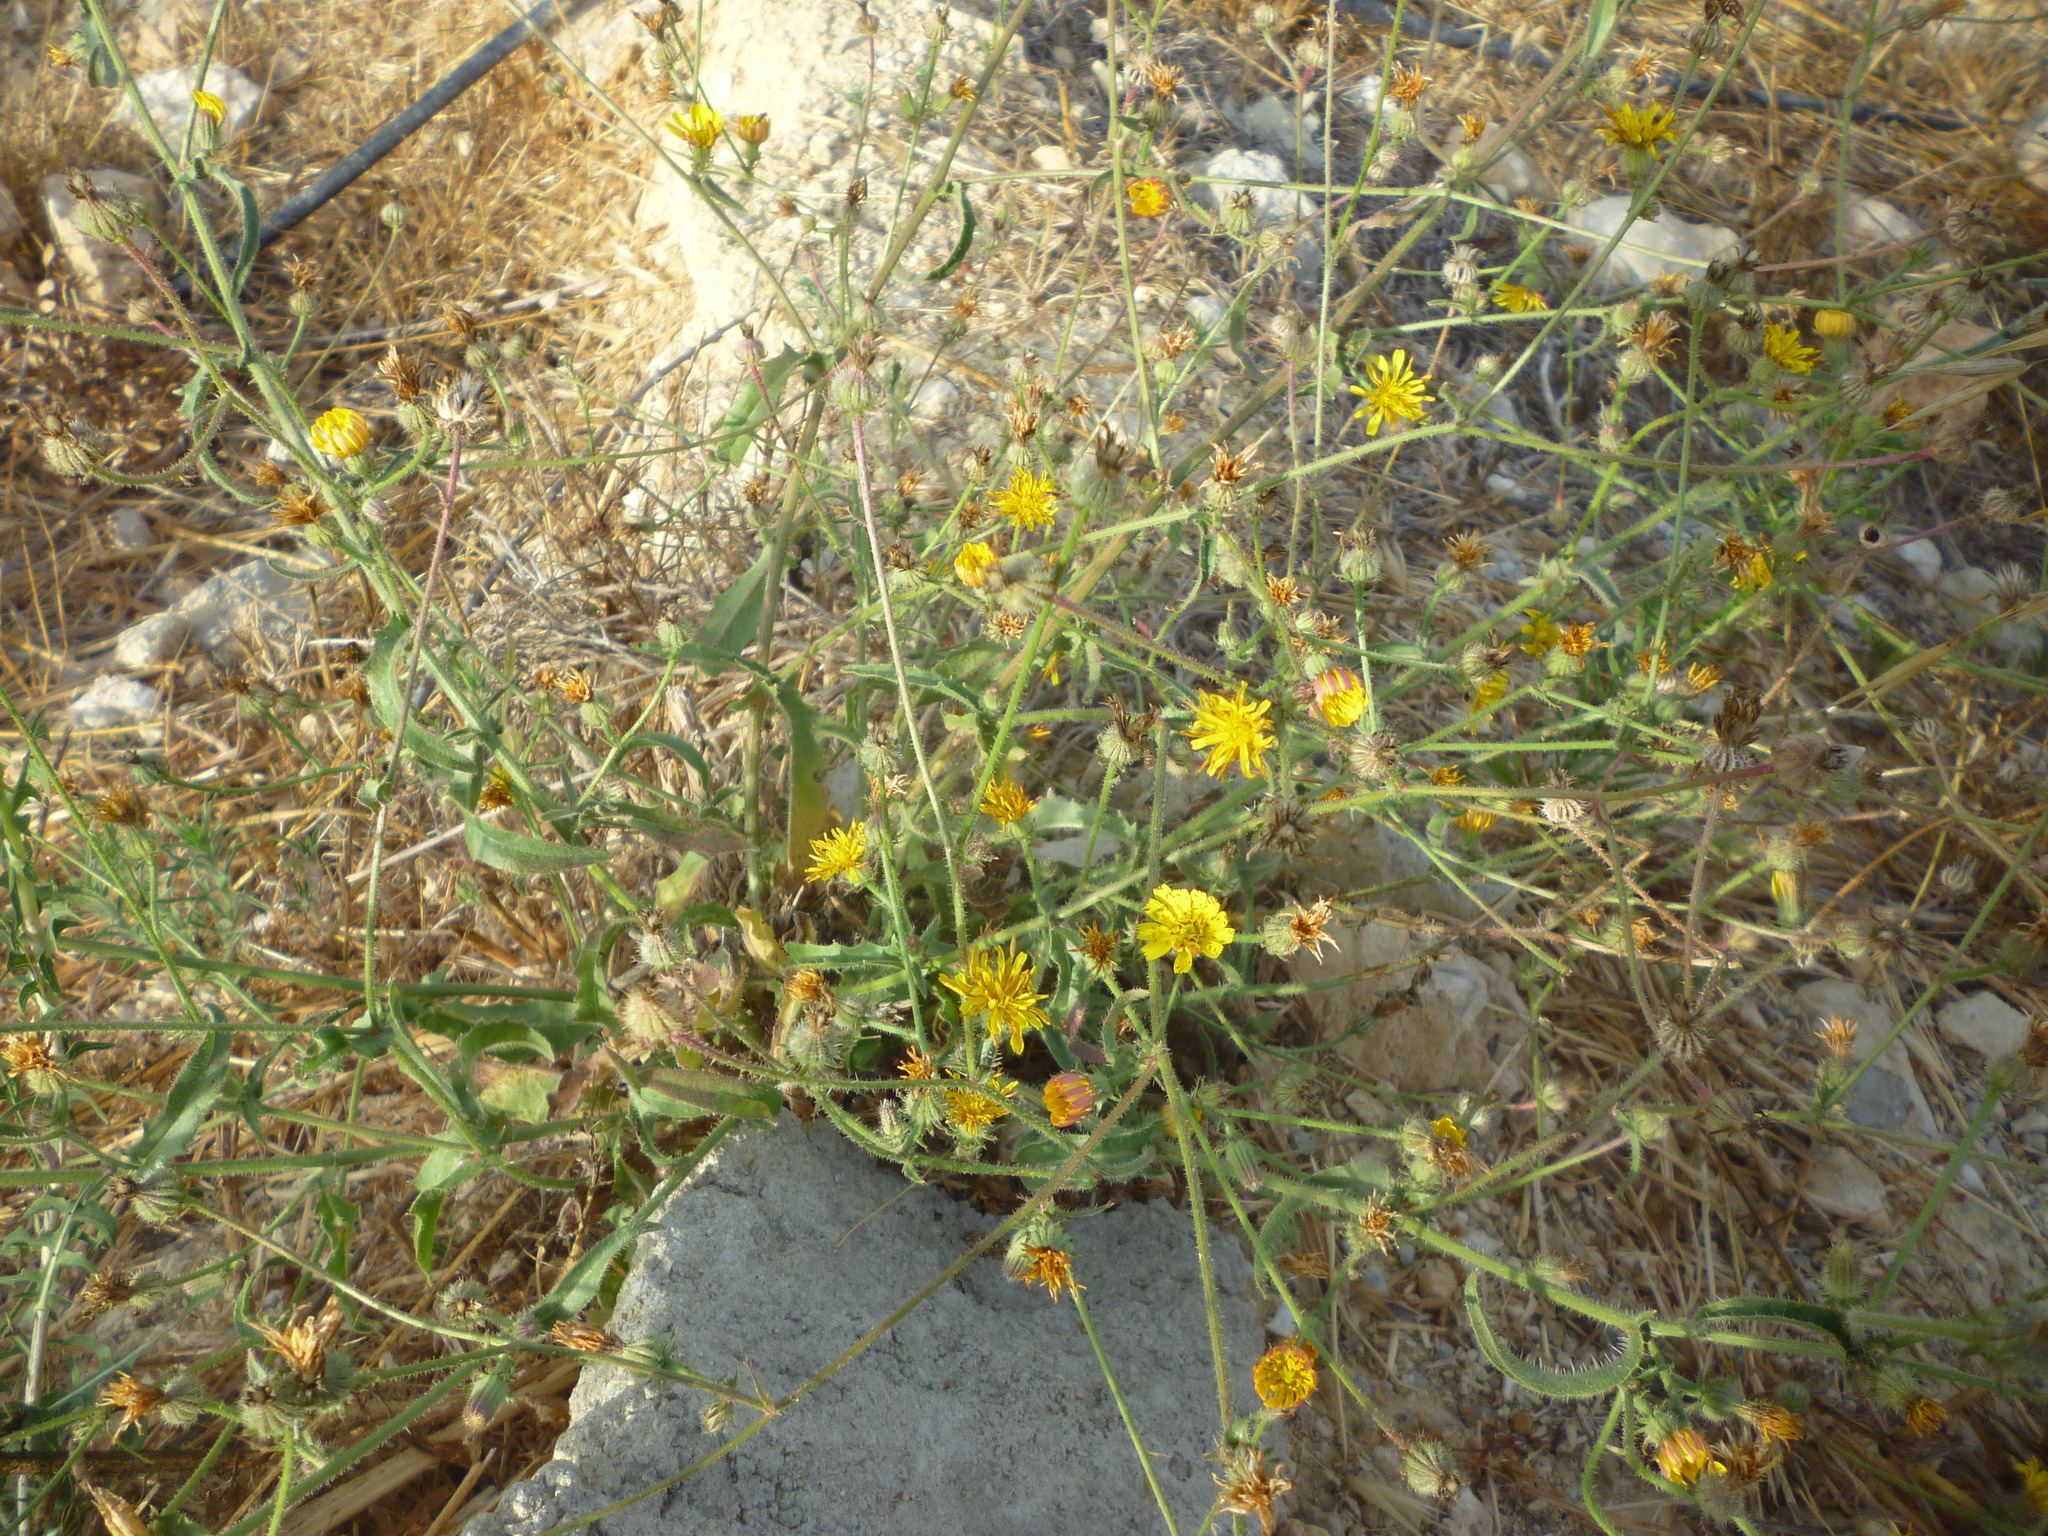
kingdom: Plantae
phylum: Tracheophyta
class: Magnoliopsida
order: Asterales
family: Asteraceae
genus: Picris
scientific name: Picris rhagadioloides
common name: Oxtongue
